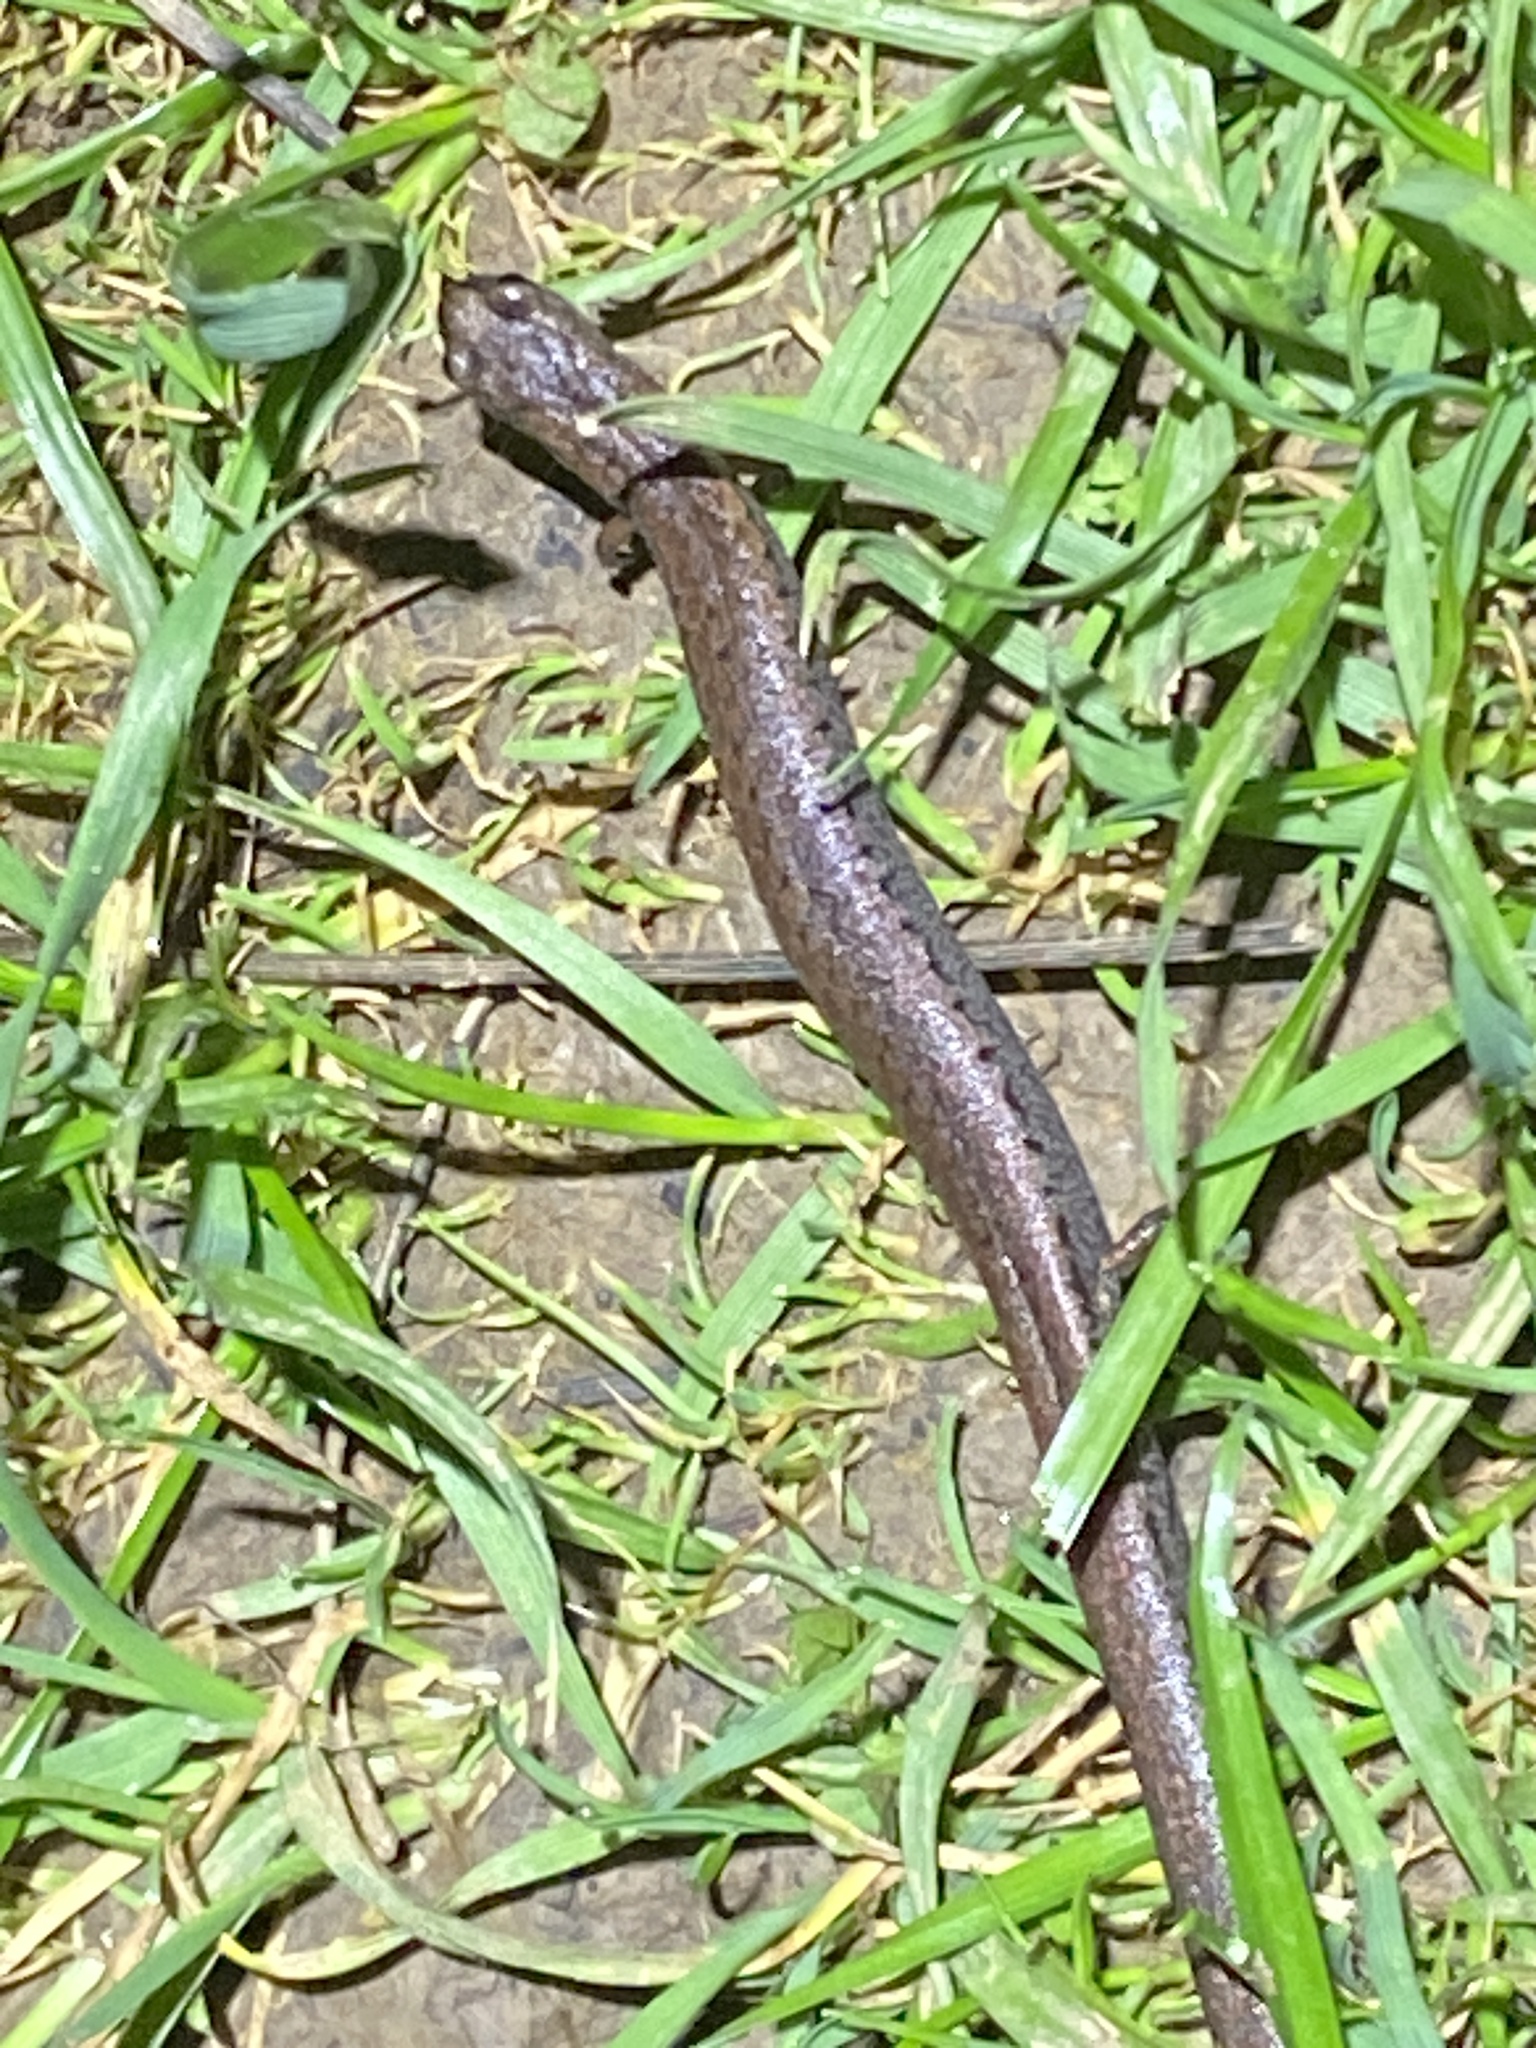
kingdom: Animalia
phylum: Chordata
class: Amphibia
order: Caudata
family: Plethodontidae
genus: Batrachoseps
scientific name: Batrachoseps attenuatus
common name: California slender salamander
